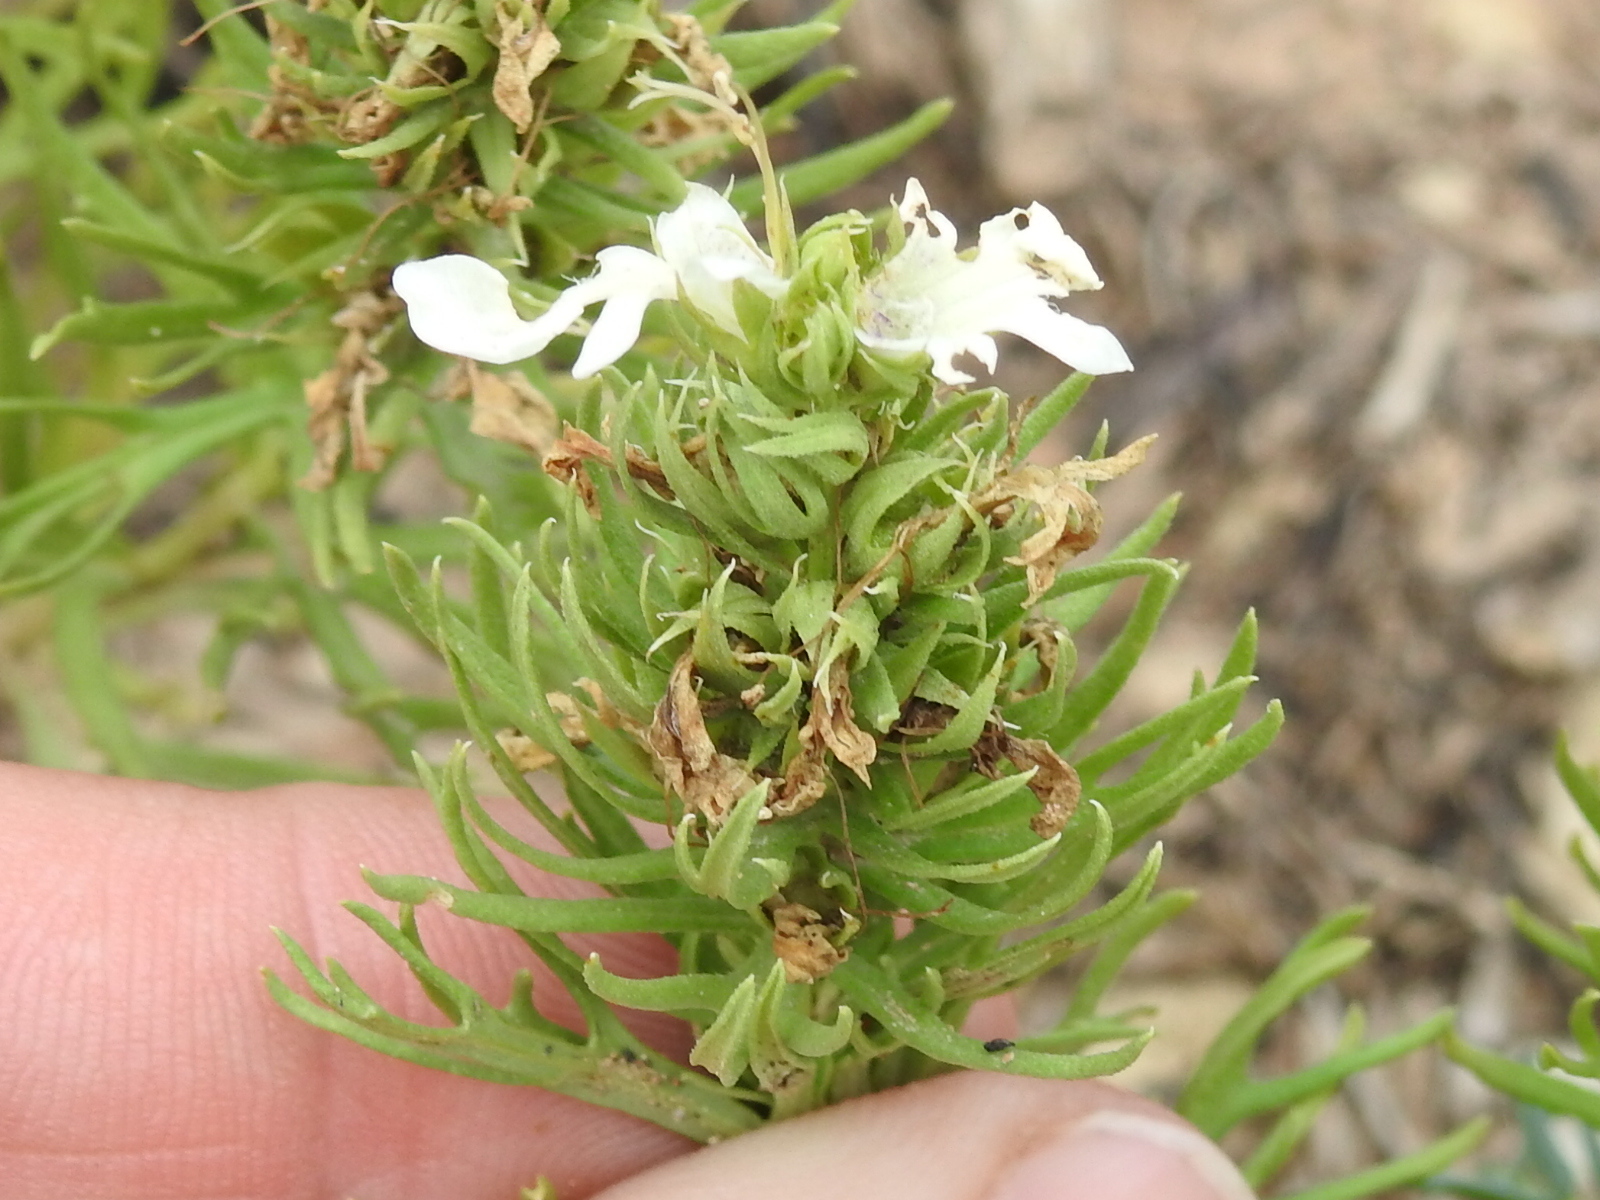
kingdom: Plantae
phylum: Tracheophyta
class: Magnoliopsida
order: Lamiales
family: Lamiaceae
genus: Teucrium
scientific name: Teucrium laciniatum
